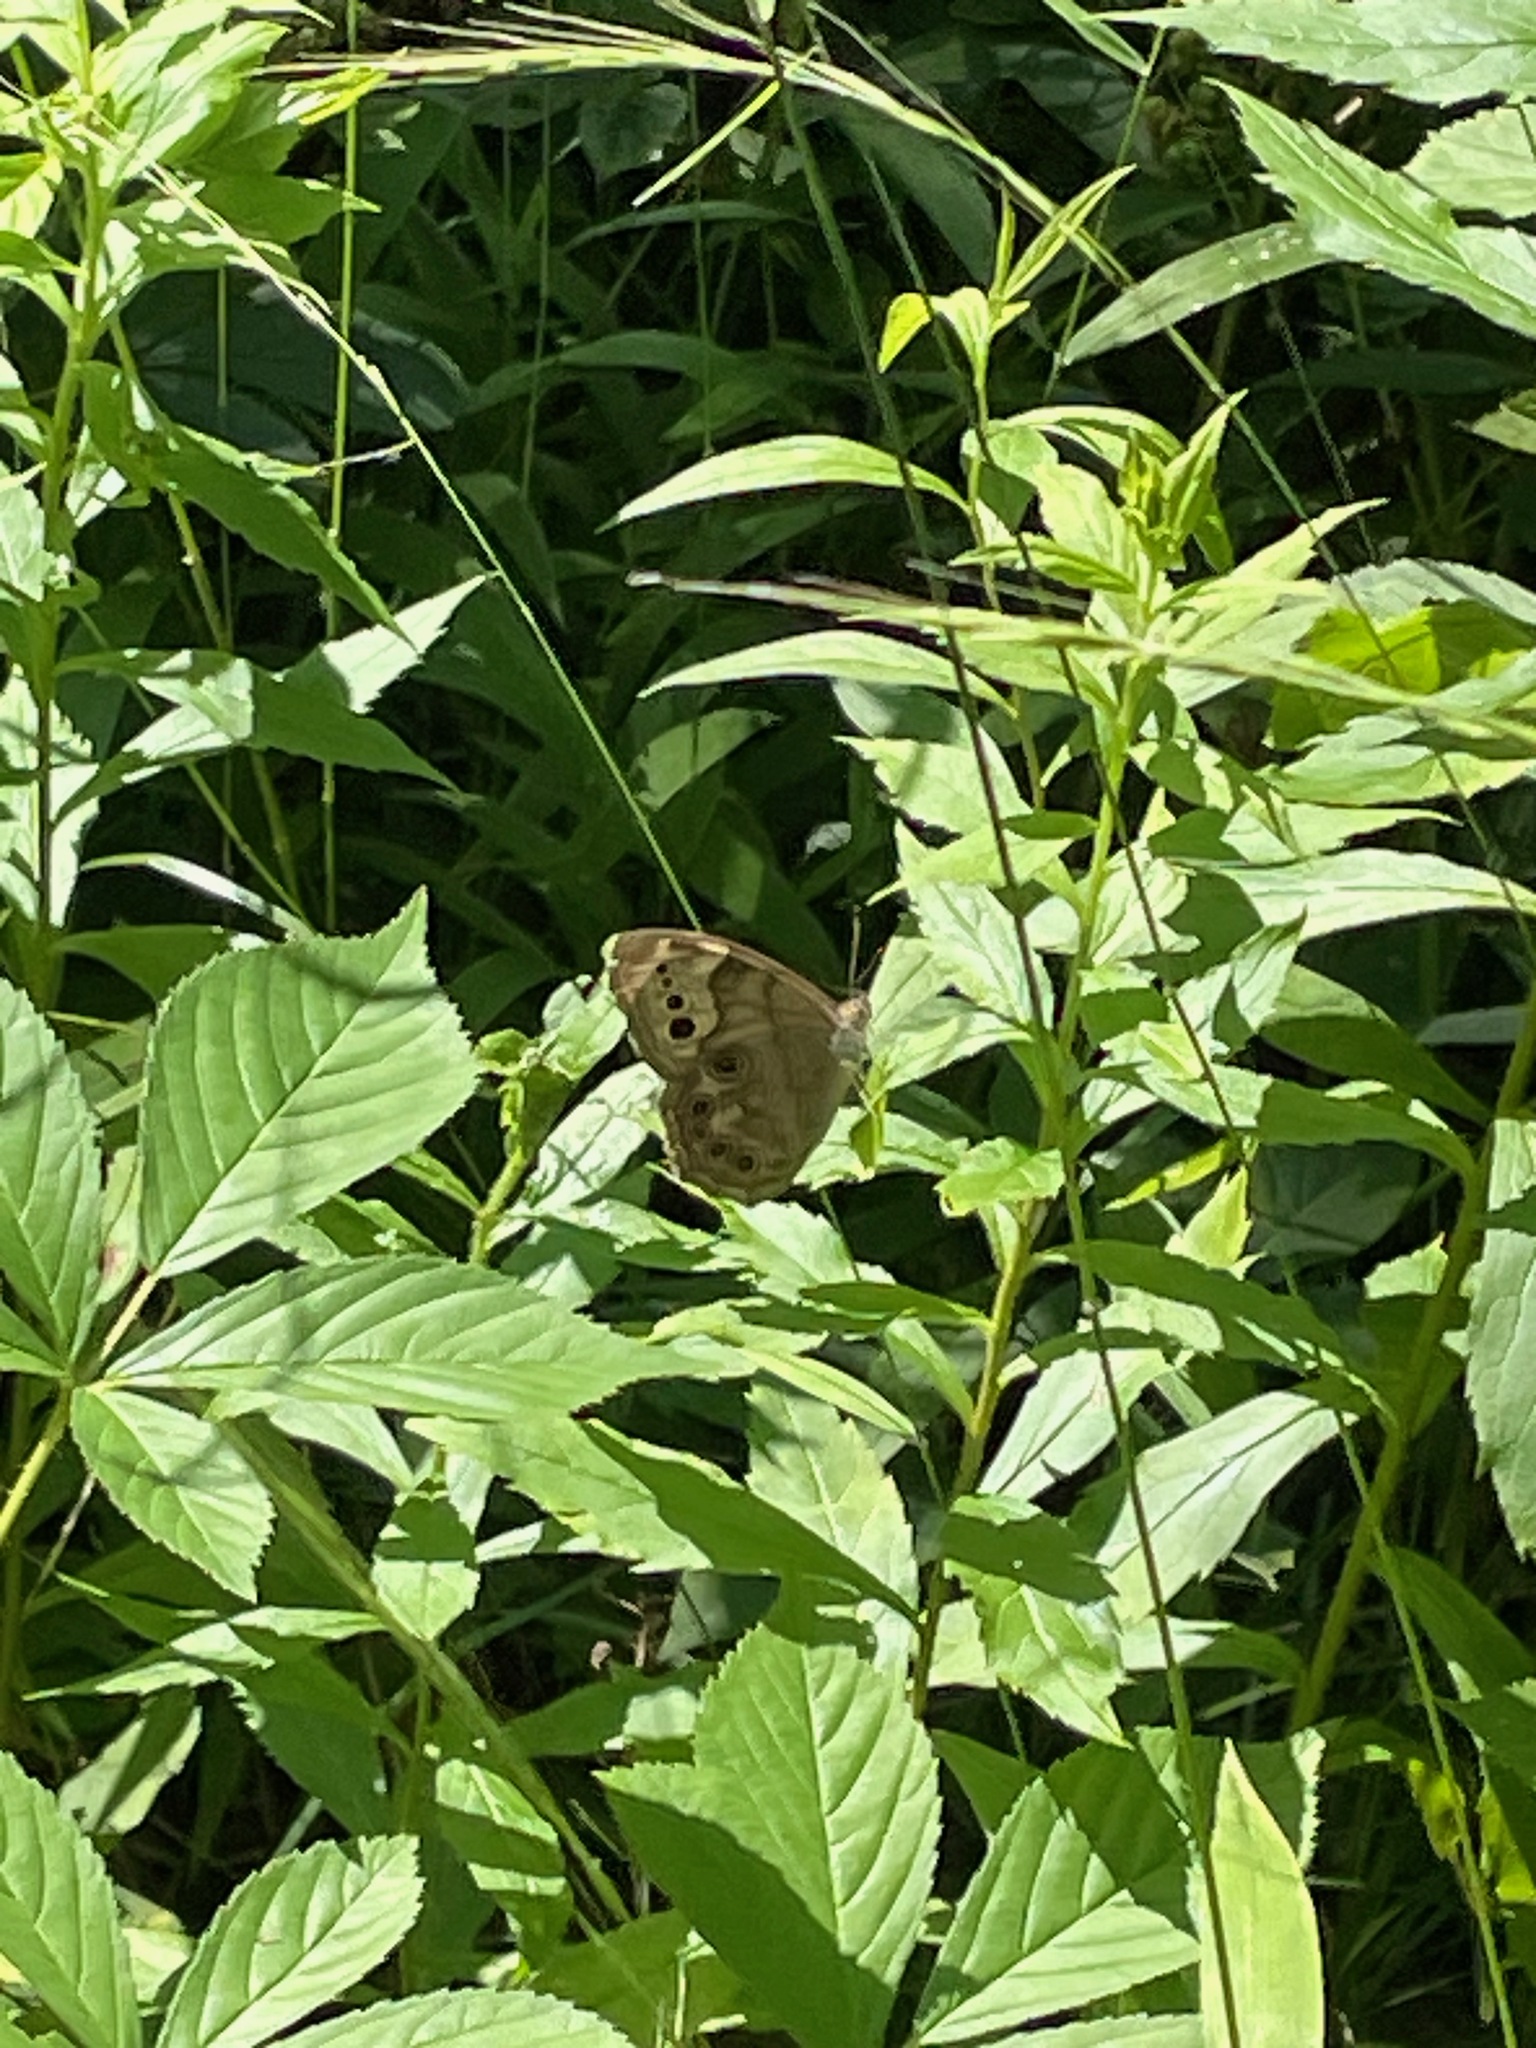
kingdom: Animalia
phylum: Arthropoda
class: Insecta
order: Lepidoptera
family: Nymphalidae
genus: Lethe
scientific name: Lethe anthedon
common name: Northern pearly-eye
